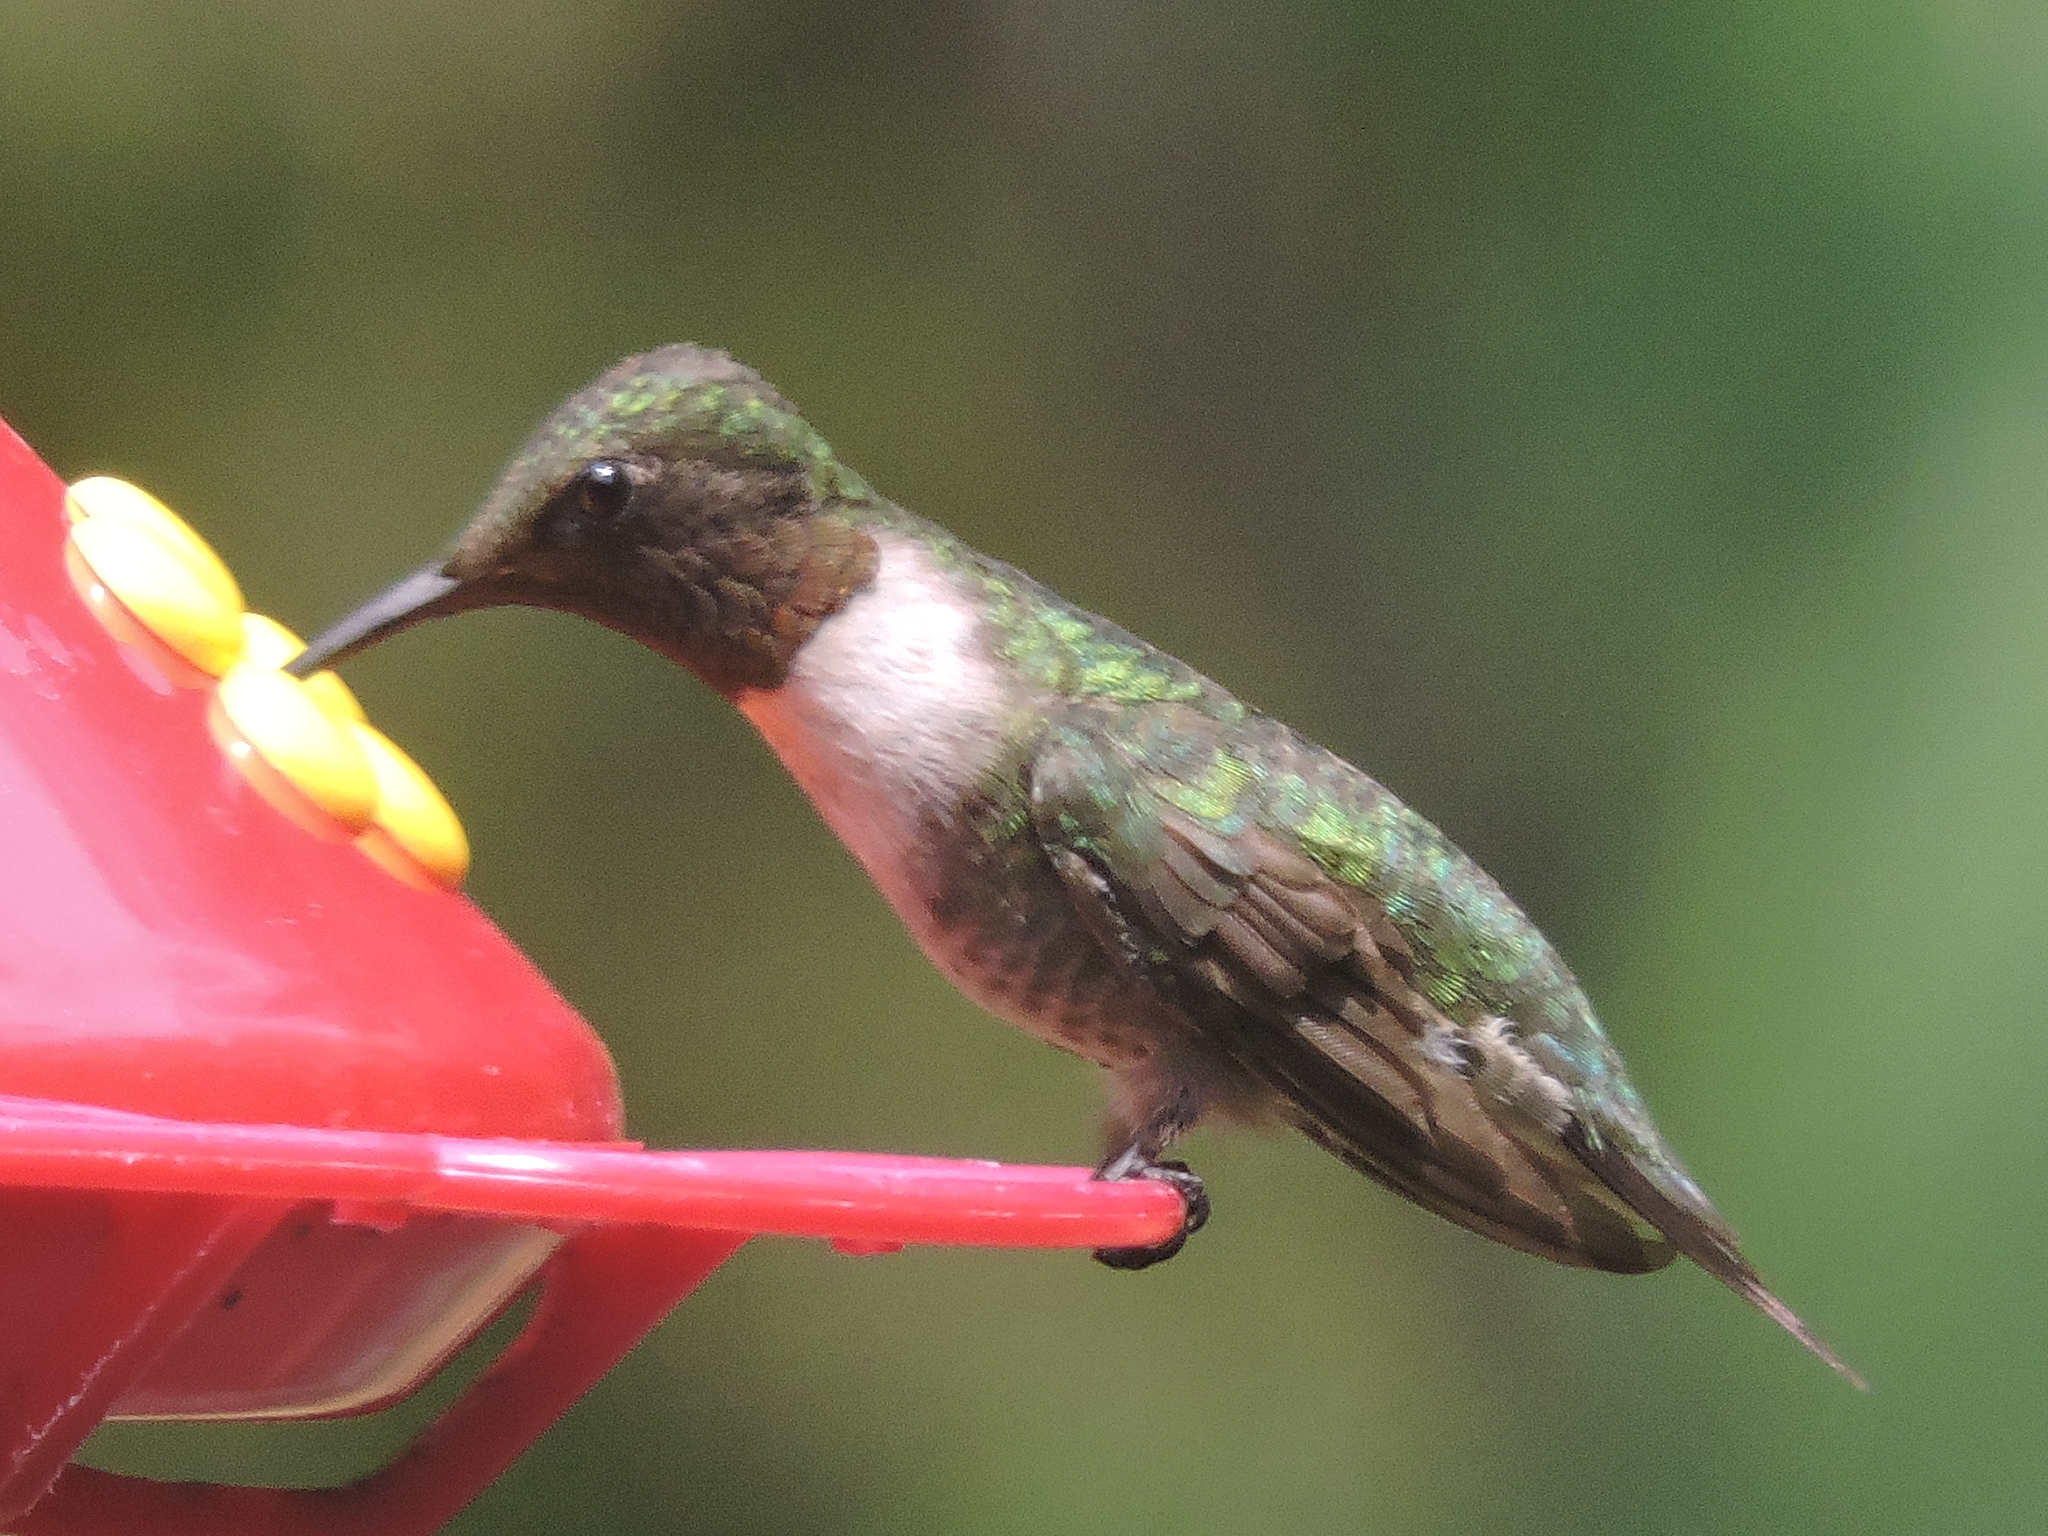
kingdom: Animalia
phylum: Chordata
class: Aves
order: Apodiformes
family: Trochilidae
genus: Archilochus
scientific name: Archilochus colubris
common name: Ruby-throated hummingbird
